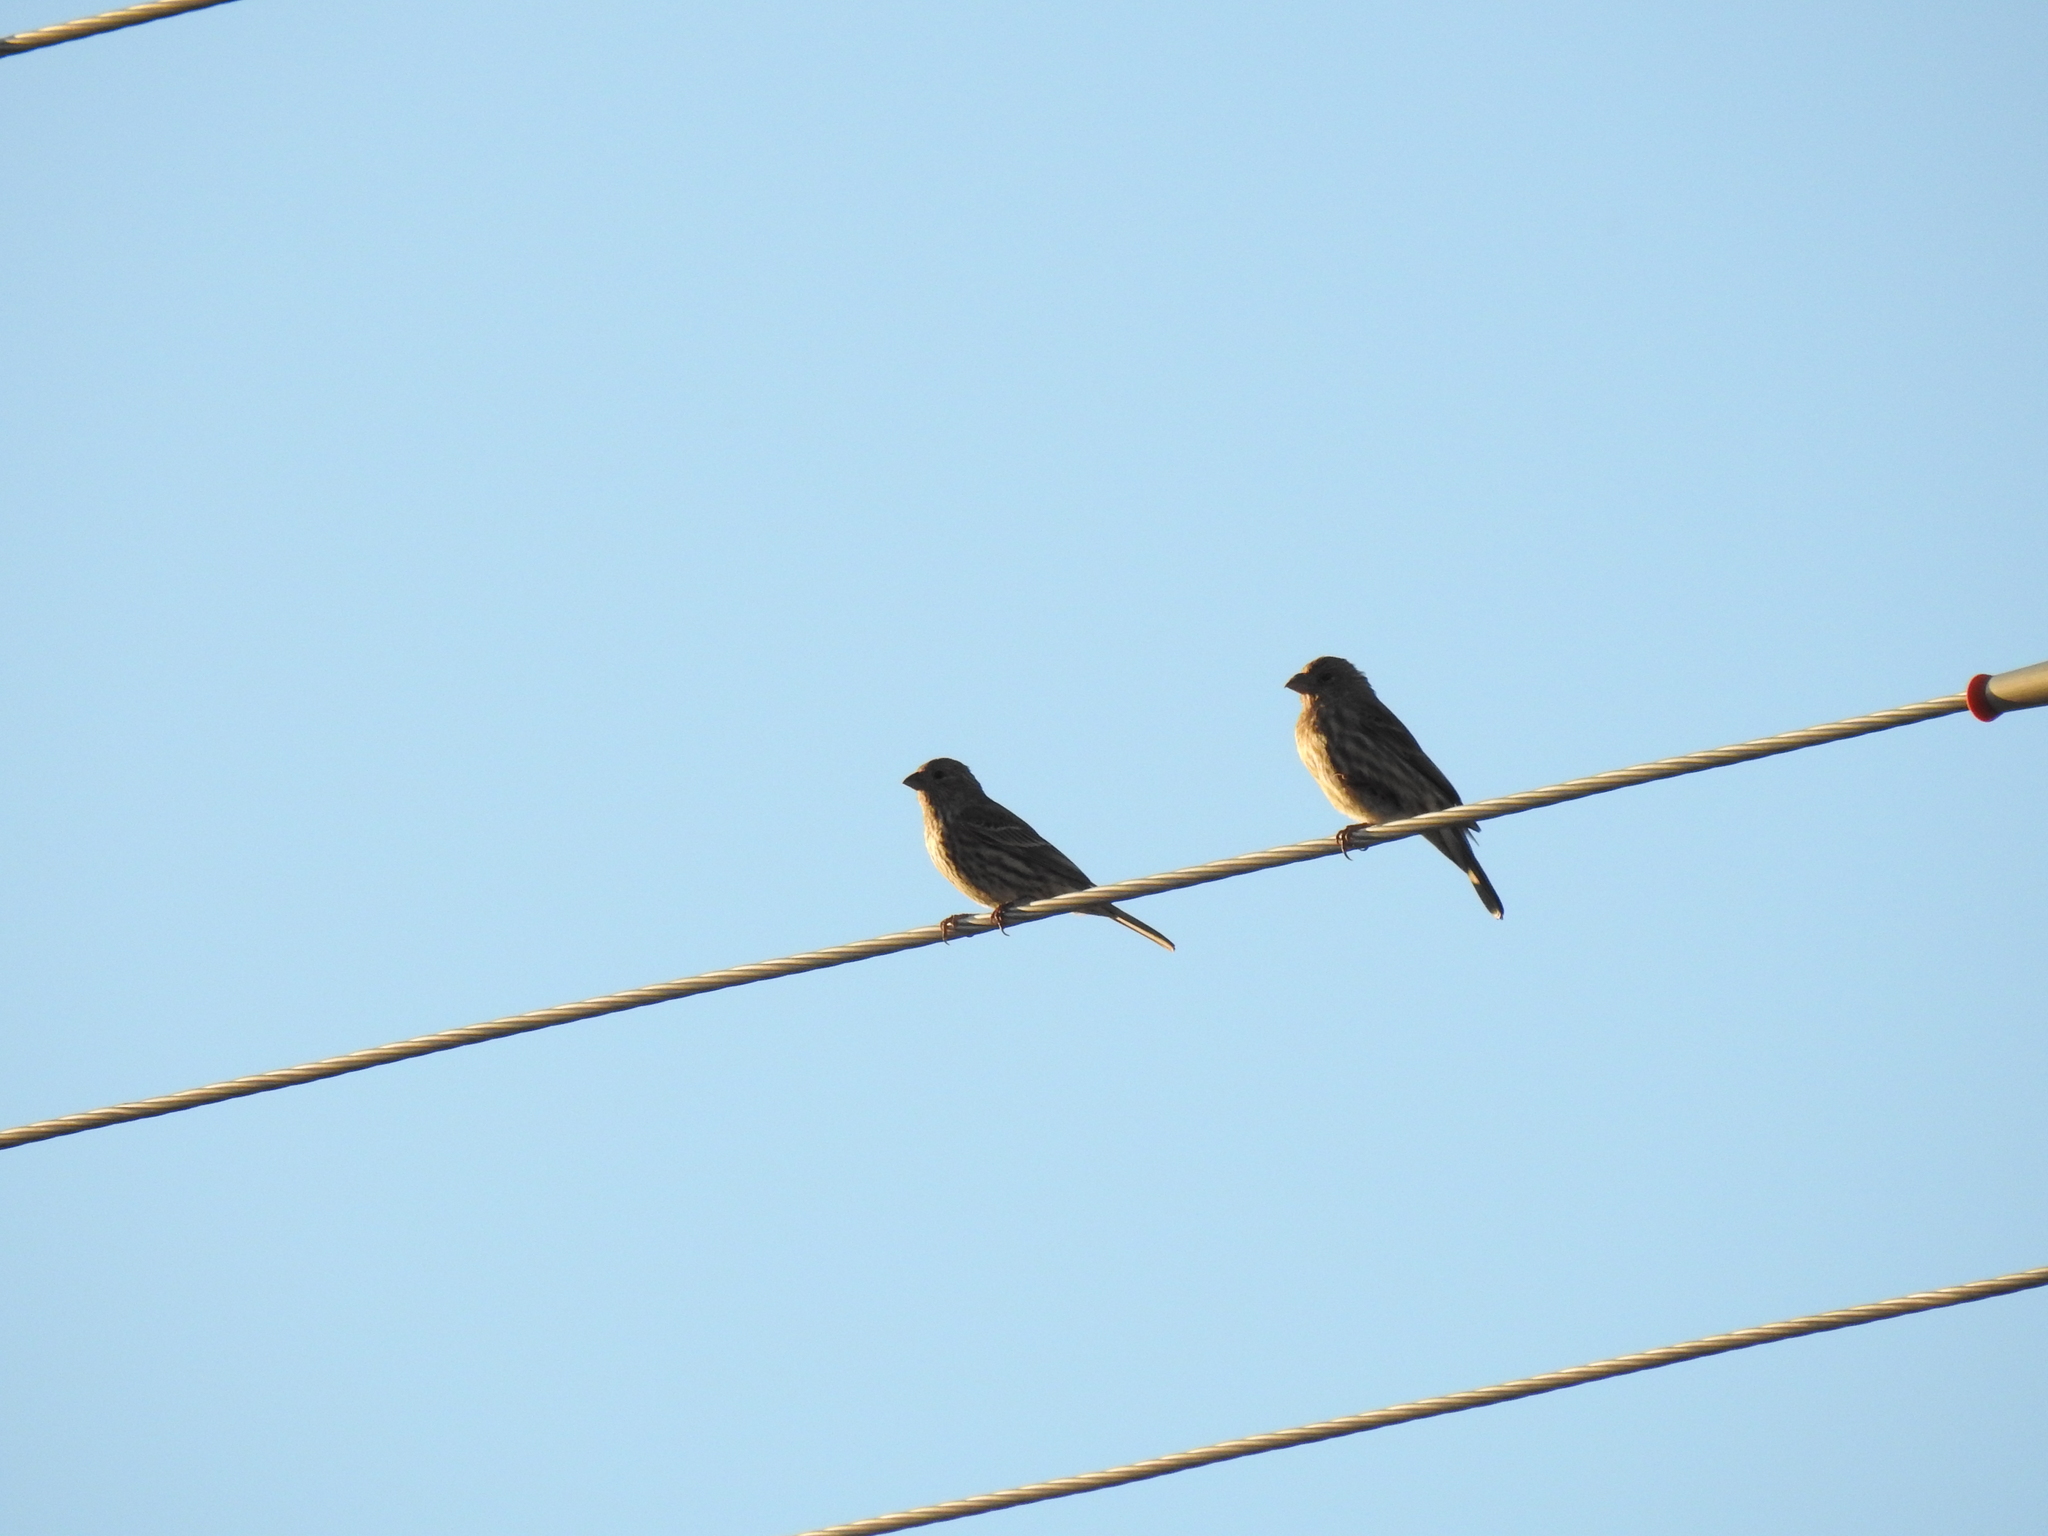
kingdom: Animalia
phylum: Chordata
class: Aves
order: Passeriformes
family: Fringillidae
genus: Haemorhous
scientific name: Haemorhous mexicanus
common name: House finch
